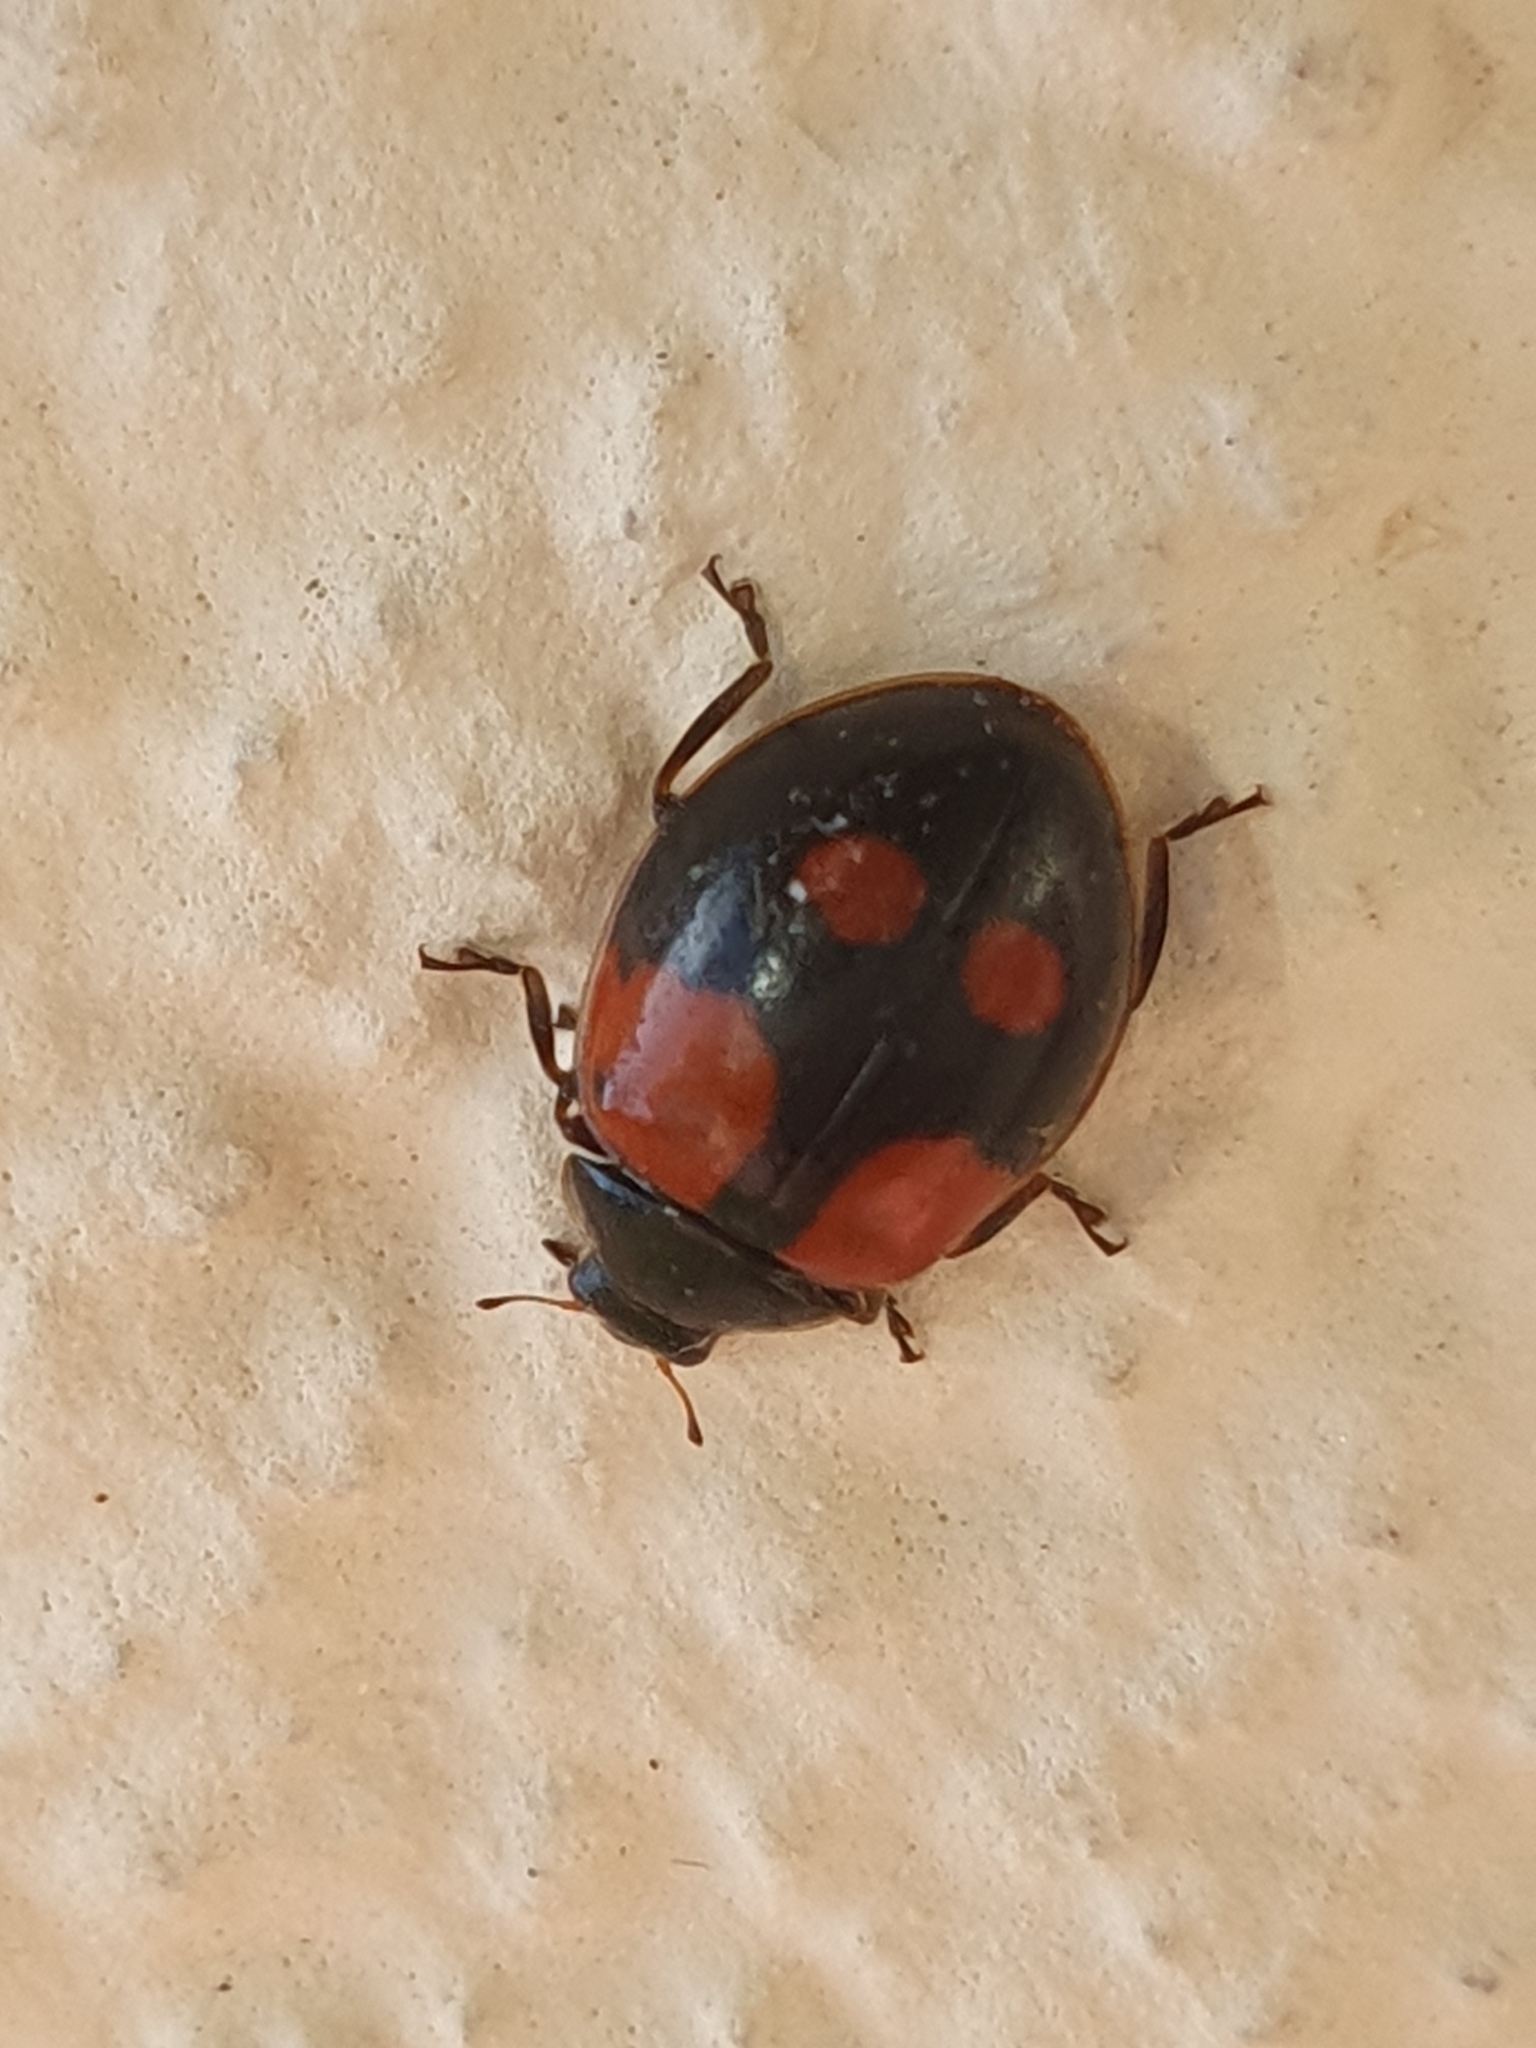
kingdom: Animalia
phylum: Arthropoda
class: Insecta
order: Coleoptera
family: Coccinellidae
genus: Adalia
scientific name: Adalia bipunctata
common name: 2-spot ladybird
